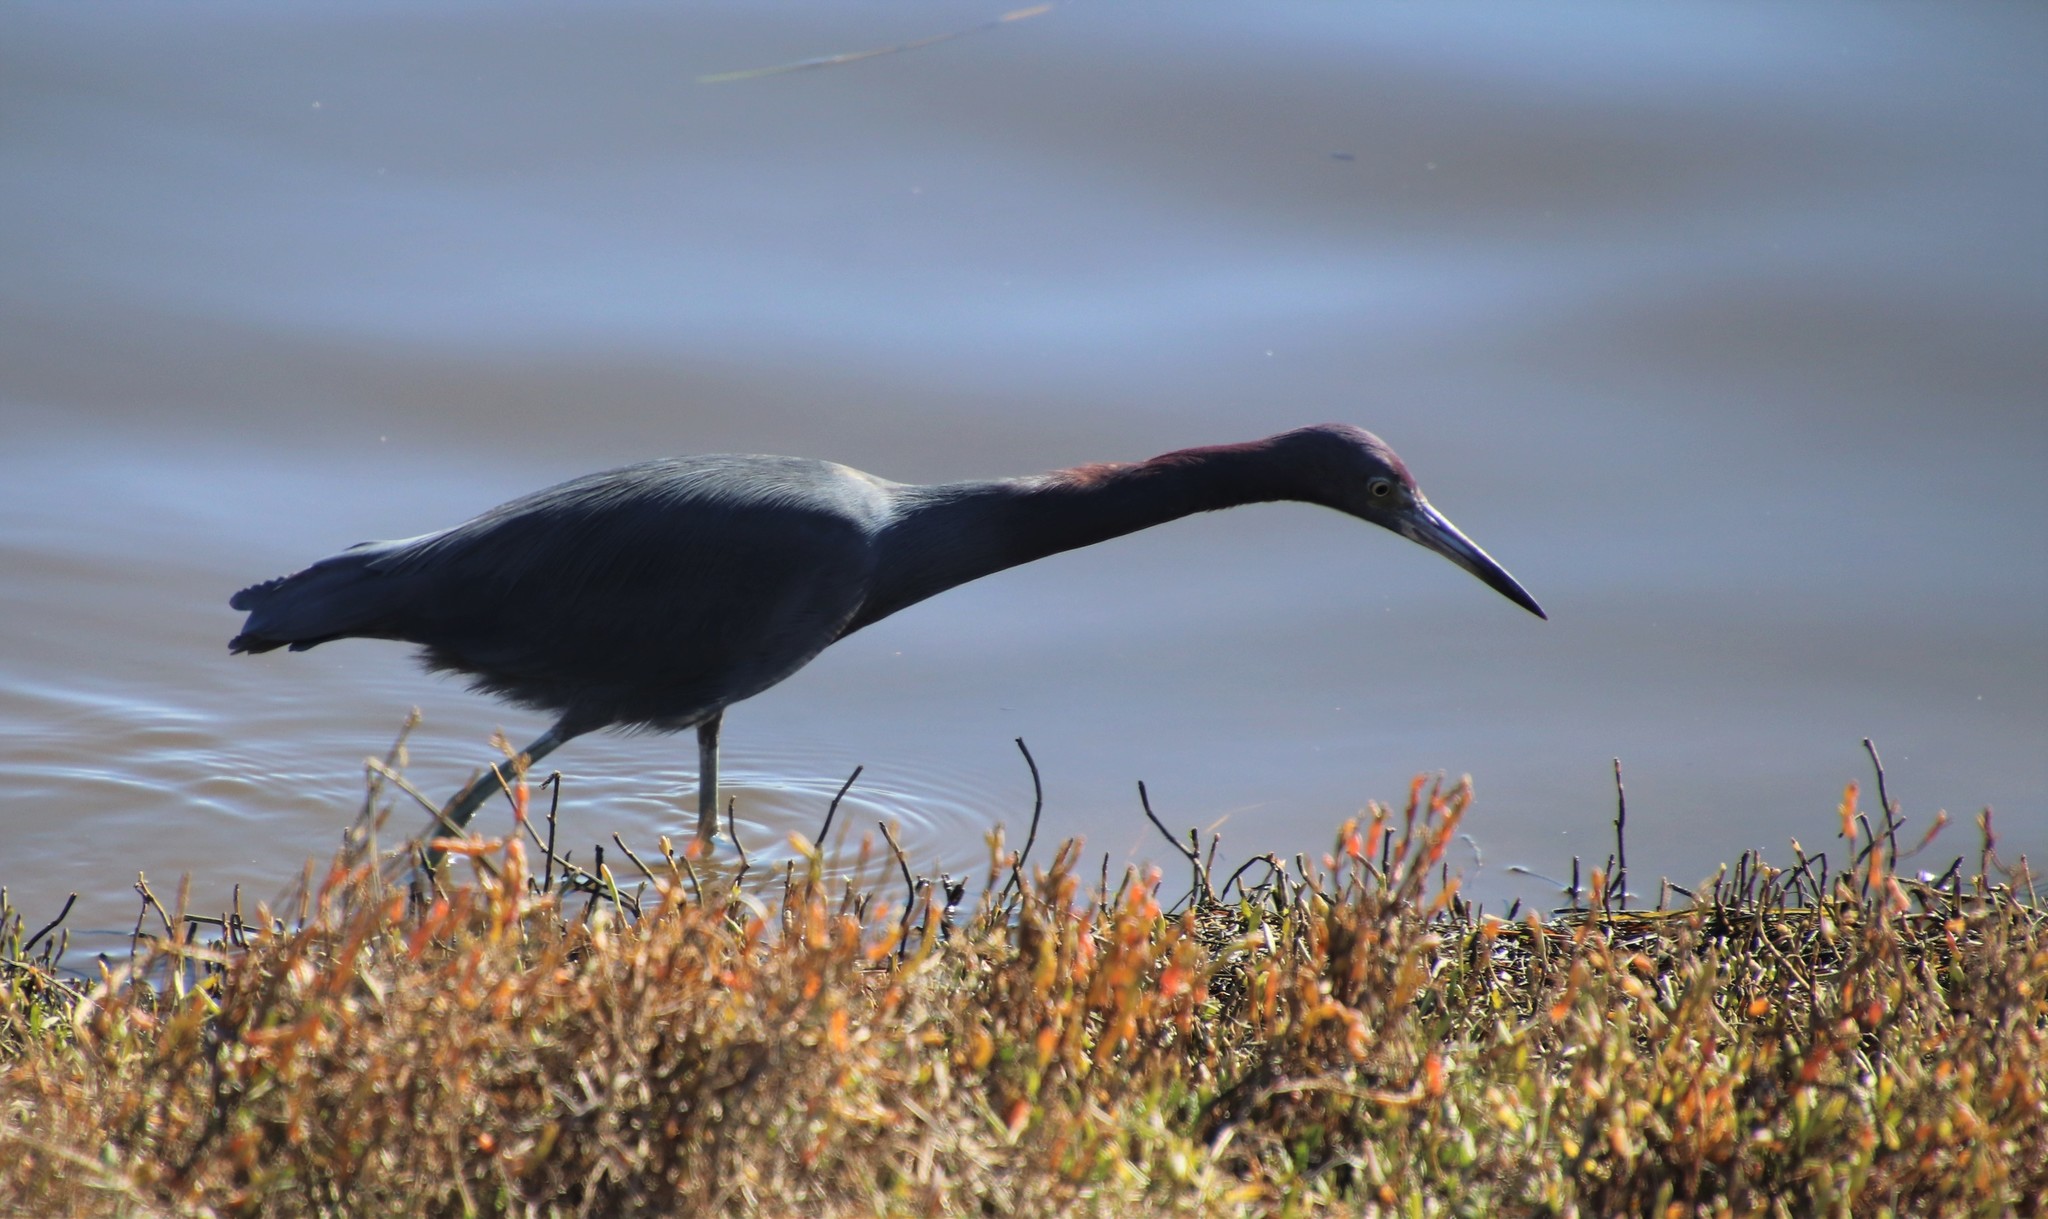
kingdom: Animalia
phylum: Chordata
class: Aves
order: Pelecaniformes
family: Ardeidae
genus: Egretta
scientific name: Egretta caerulea
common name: Little blue heron
